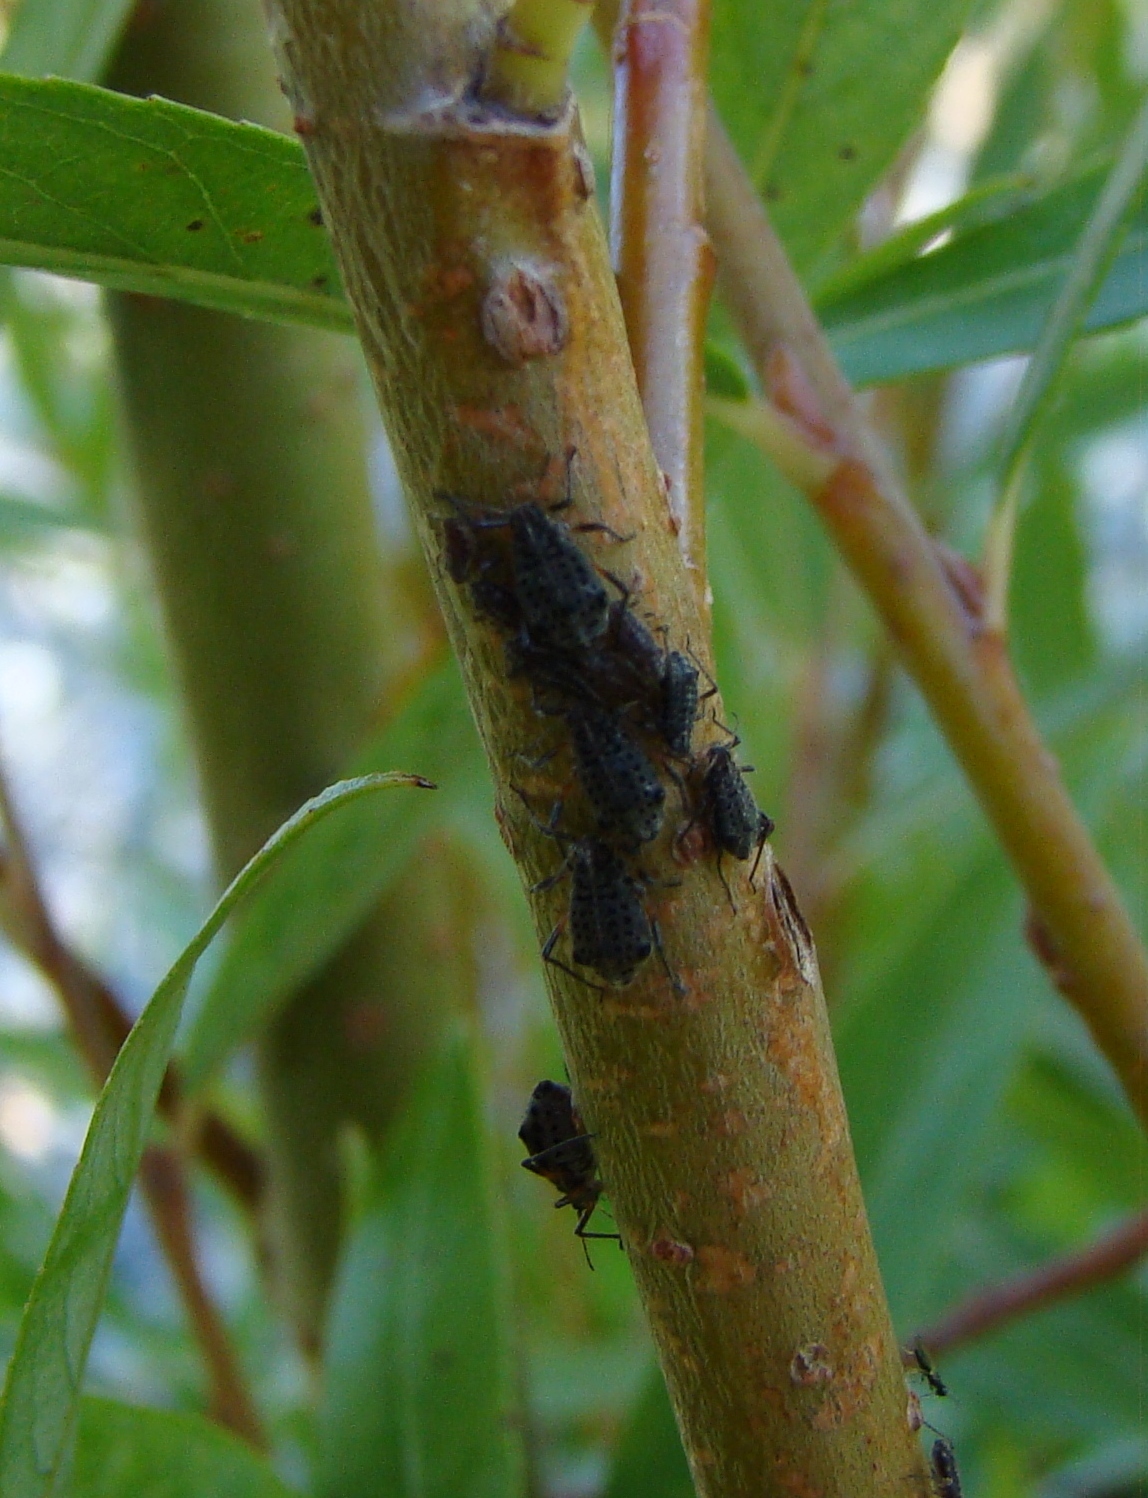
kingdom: Animalia
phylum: Arthropoda
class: Insecta
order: Hemiptera
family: Aphididae
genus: Tuberolachnus
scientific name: Tuberolachnus salignus
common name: Giant willow aphid
